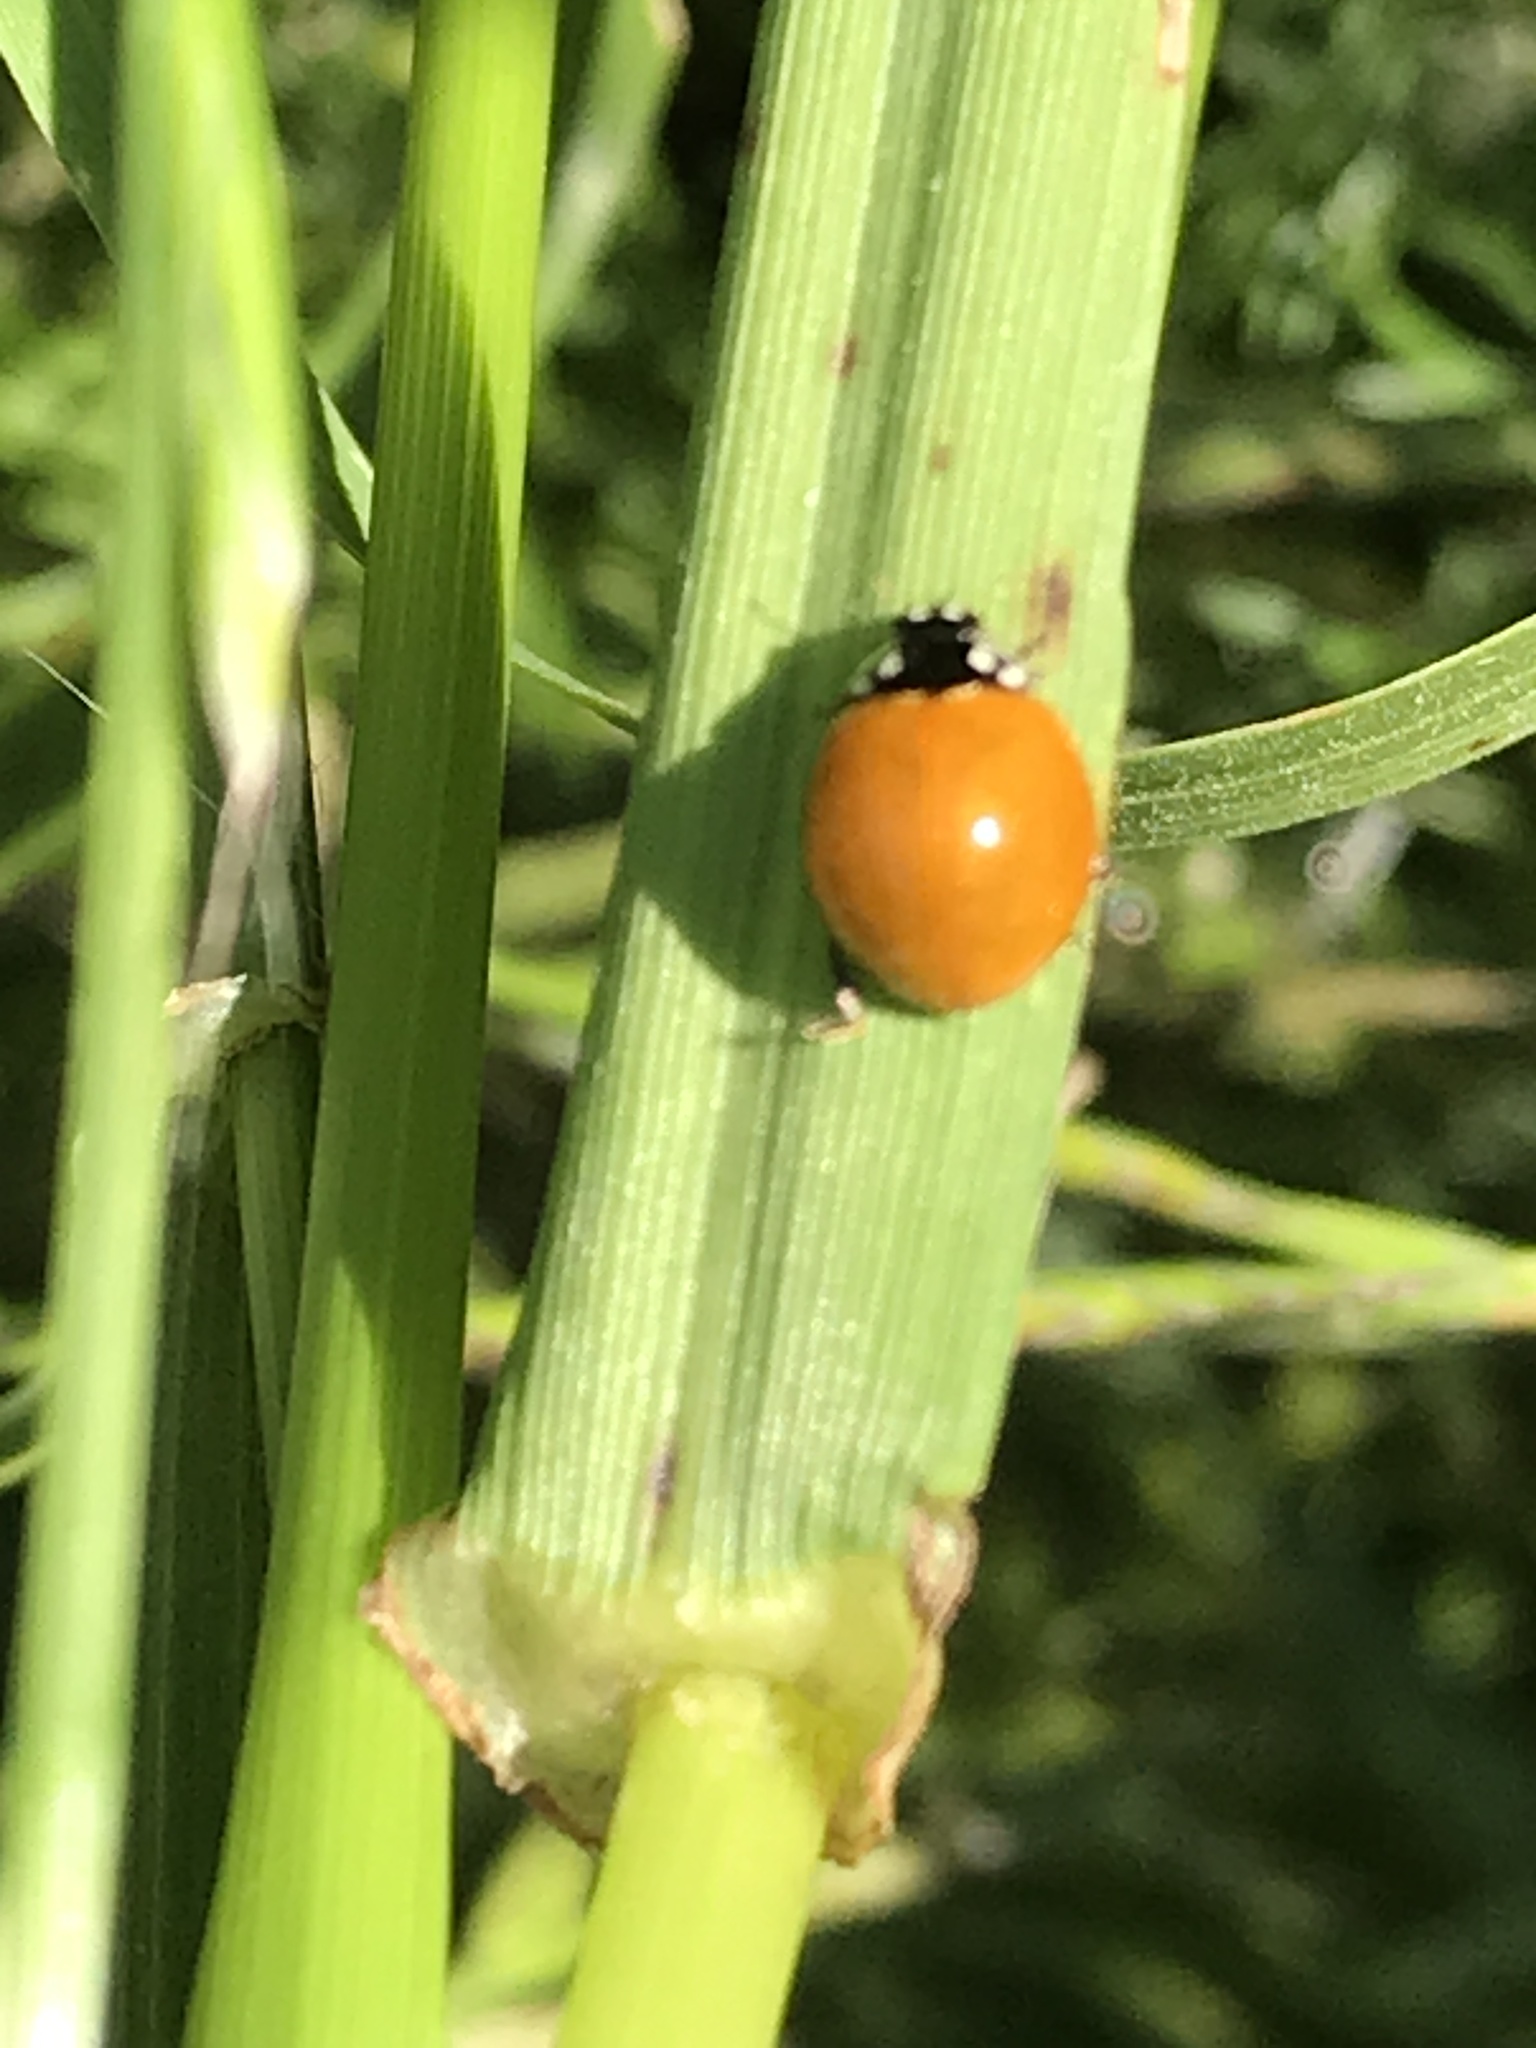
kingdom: Animalia
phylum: Arthropoda
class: Insecta
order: Coleoptera
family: Coccinellidae
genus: Cycloneda
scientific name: Cycloneda sanguinea
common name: Ladybird beetle
